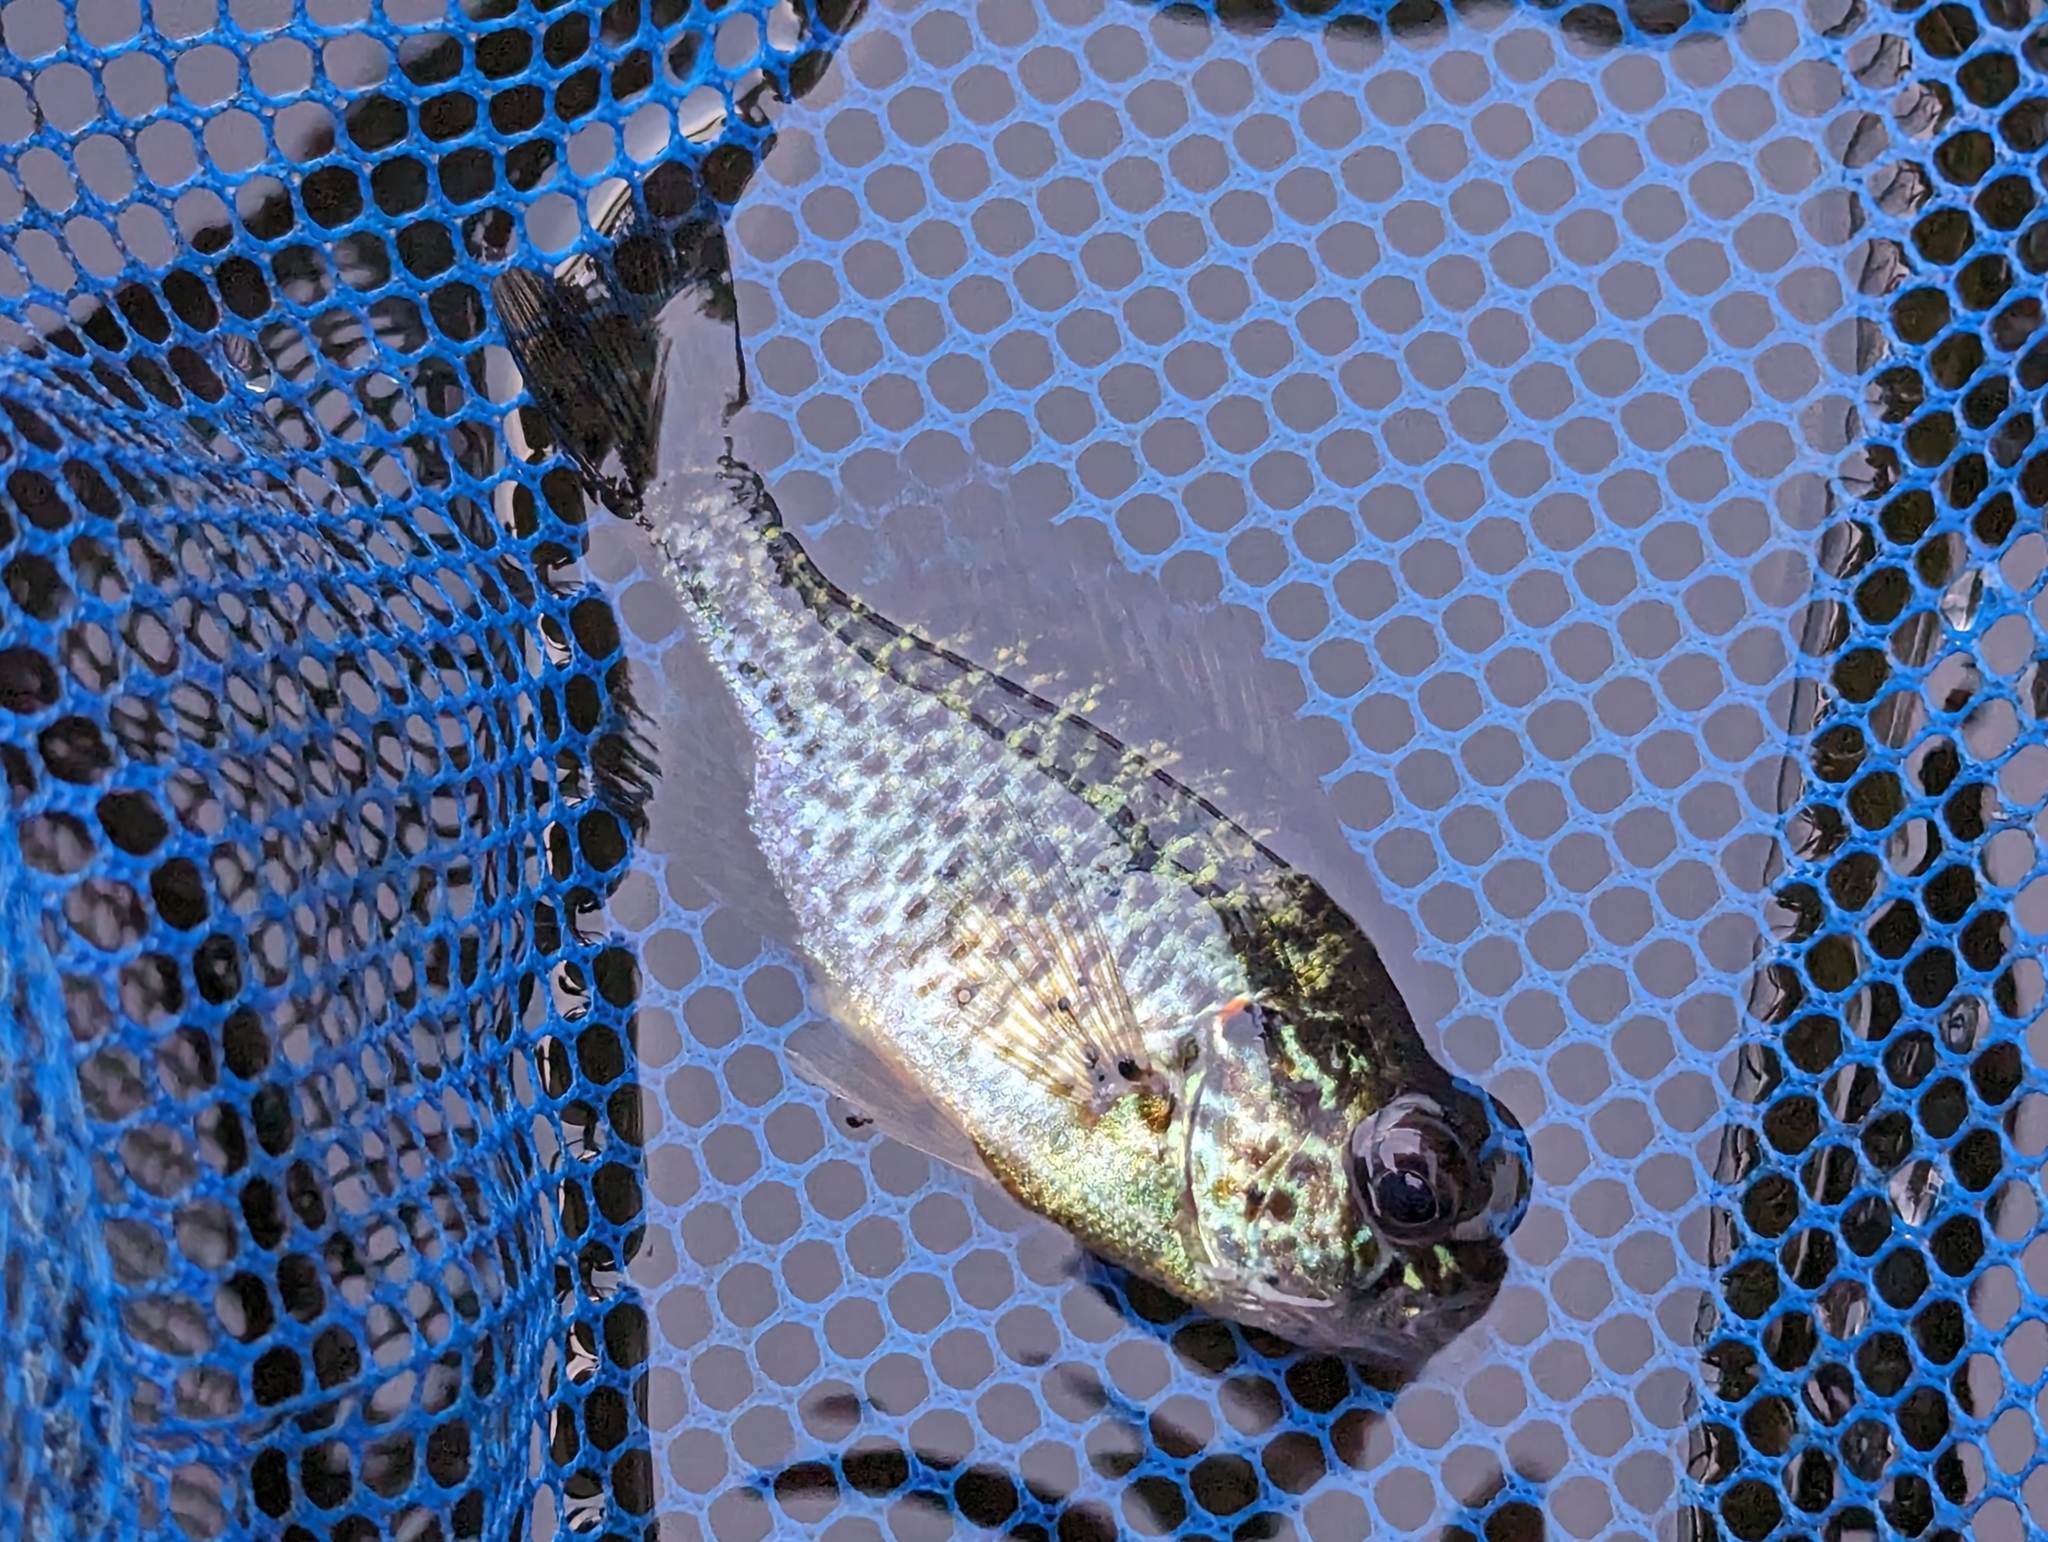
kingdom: Animalia
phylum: Chordata
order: Perciformes
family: Centrarchidae
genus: Lepomis
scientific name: Lepomis gibbosus
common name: Pumpkinseed
